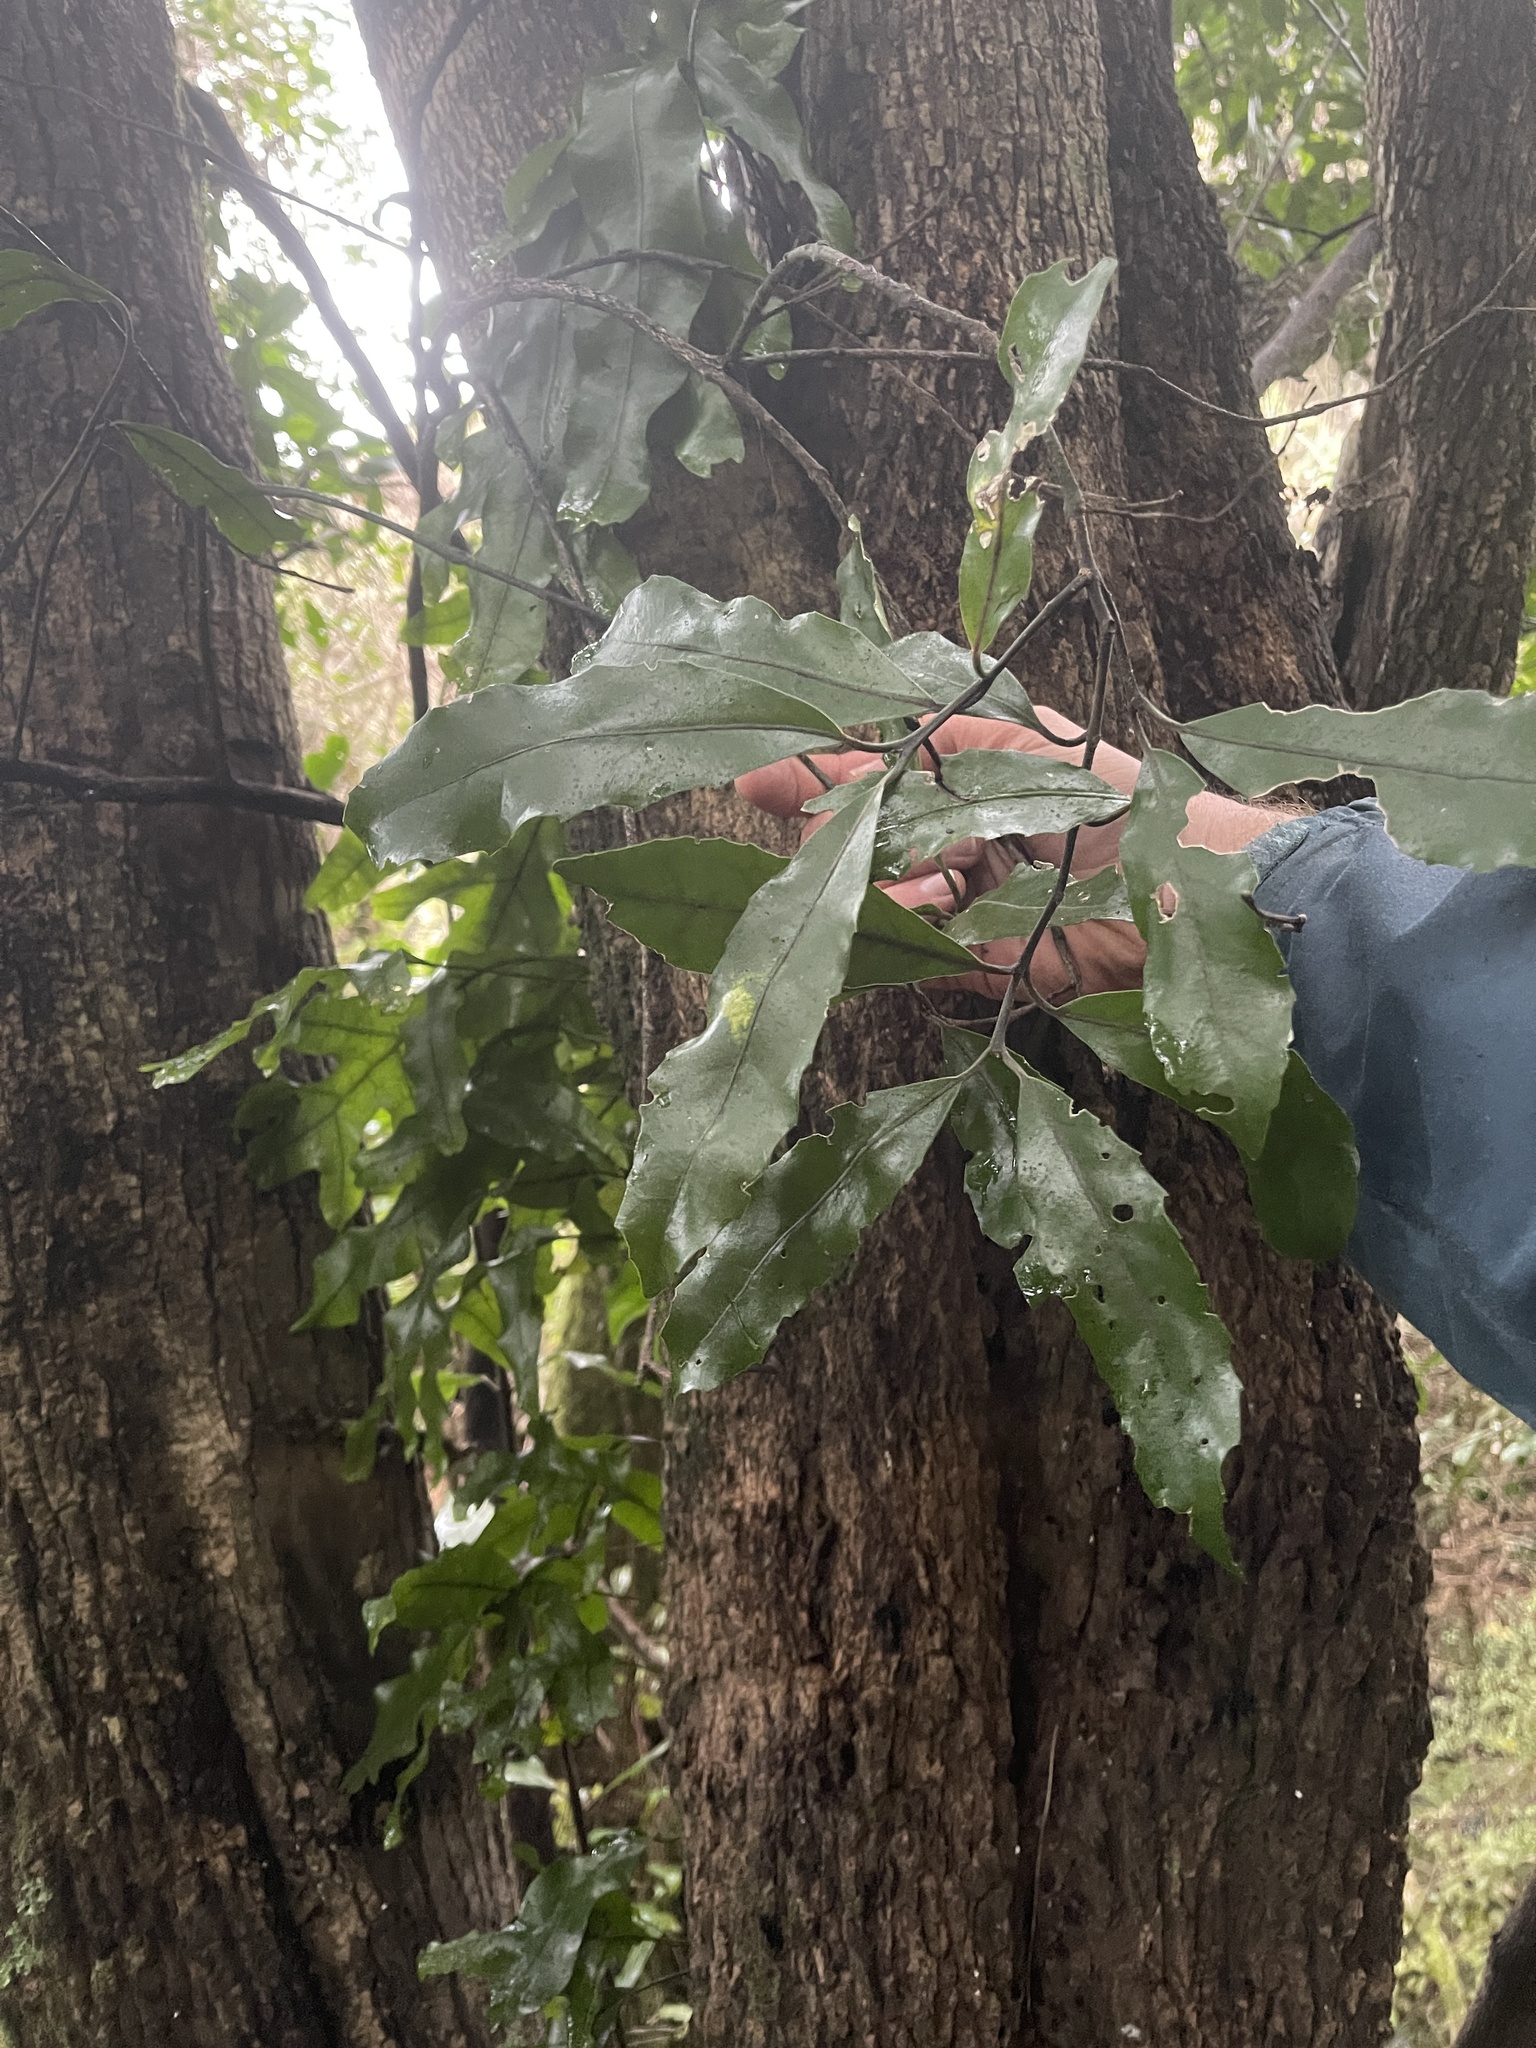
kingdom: Plantae
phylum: Tracheophyta
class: Magnoliopsida
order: Laurales
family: Monimiaceae
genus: Hedycarya
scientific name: Hedycarya arborea
